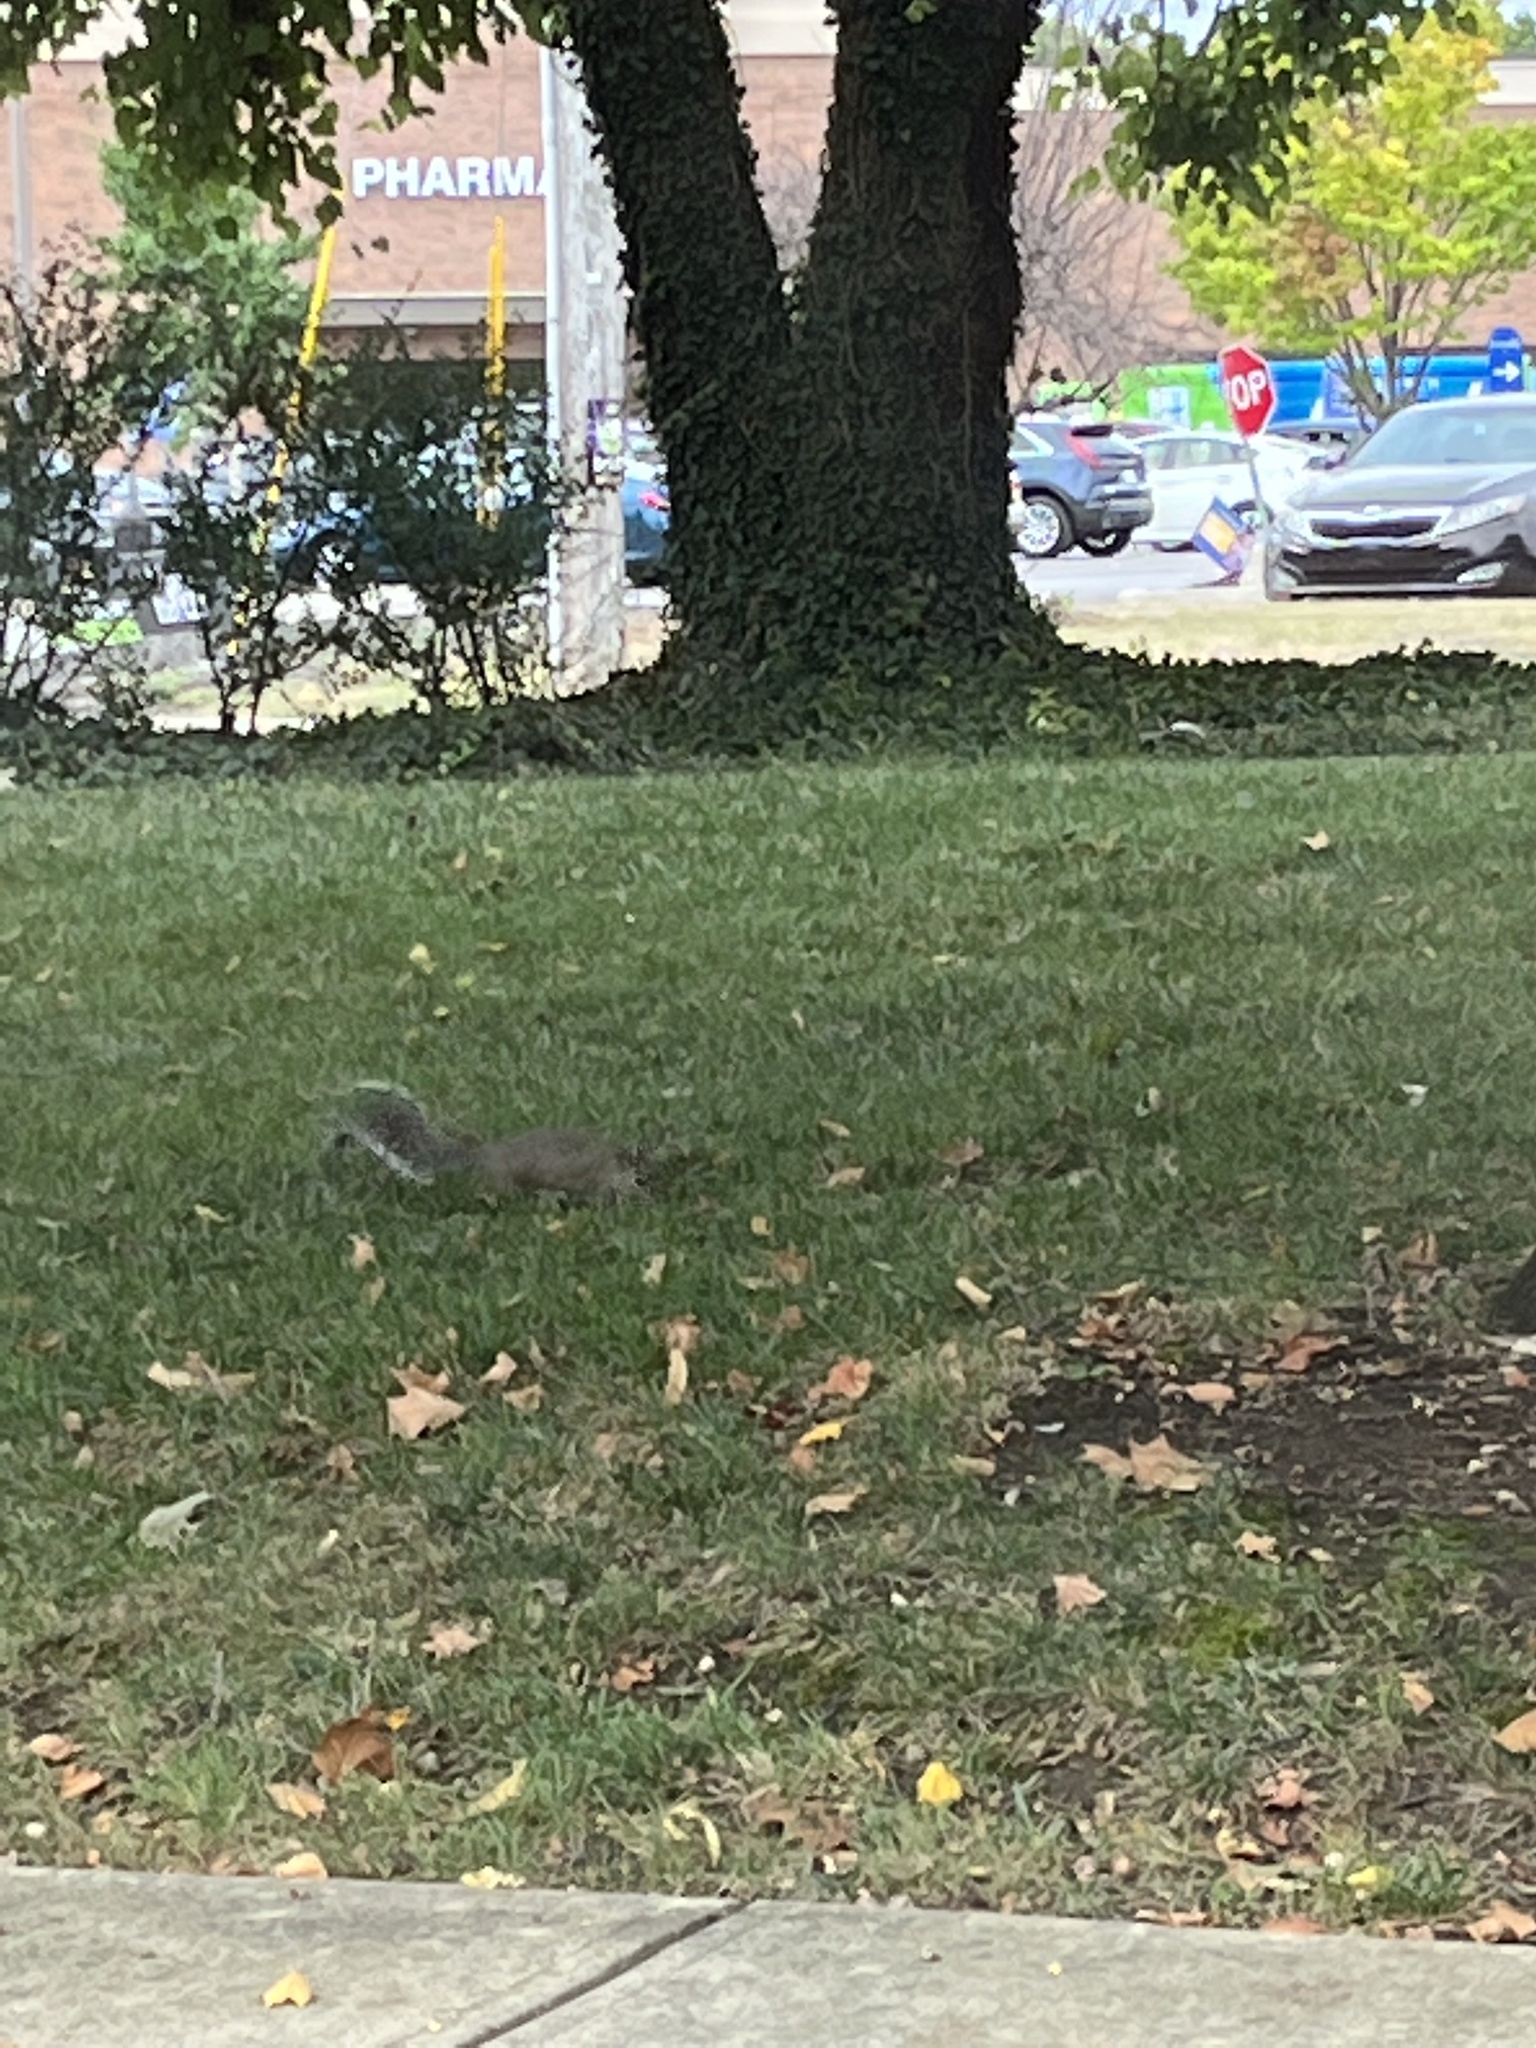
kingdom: Animalia
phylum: Chordata
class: Mammalia
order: Rodentia
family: Sciuridae
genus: Sciurus
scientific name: Sciurus carolinensis
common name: Eastern gray squirrel
